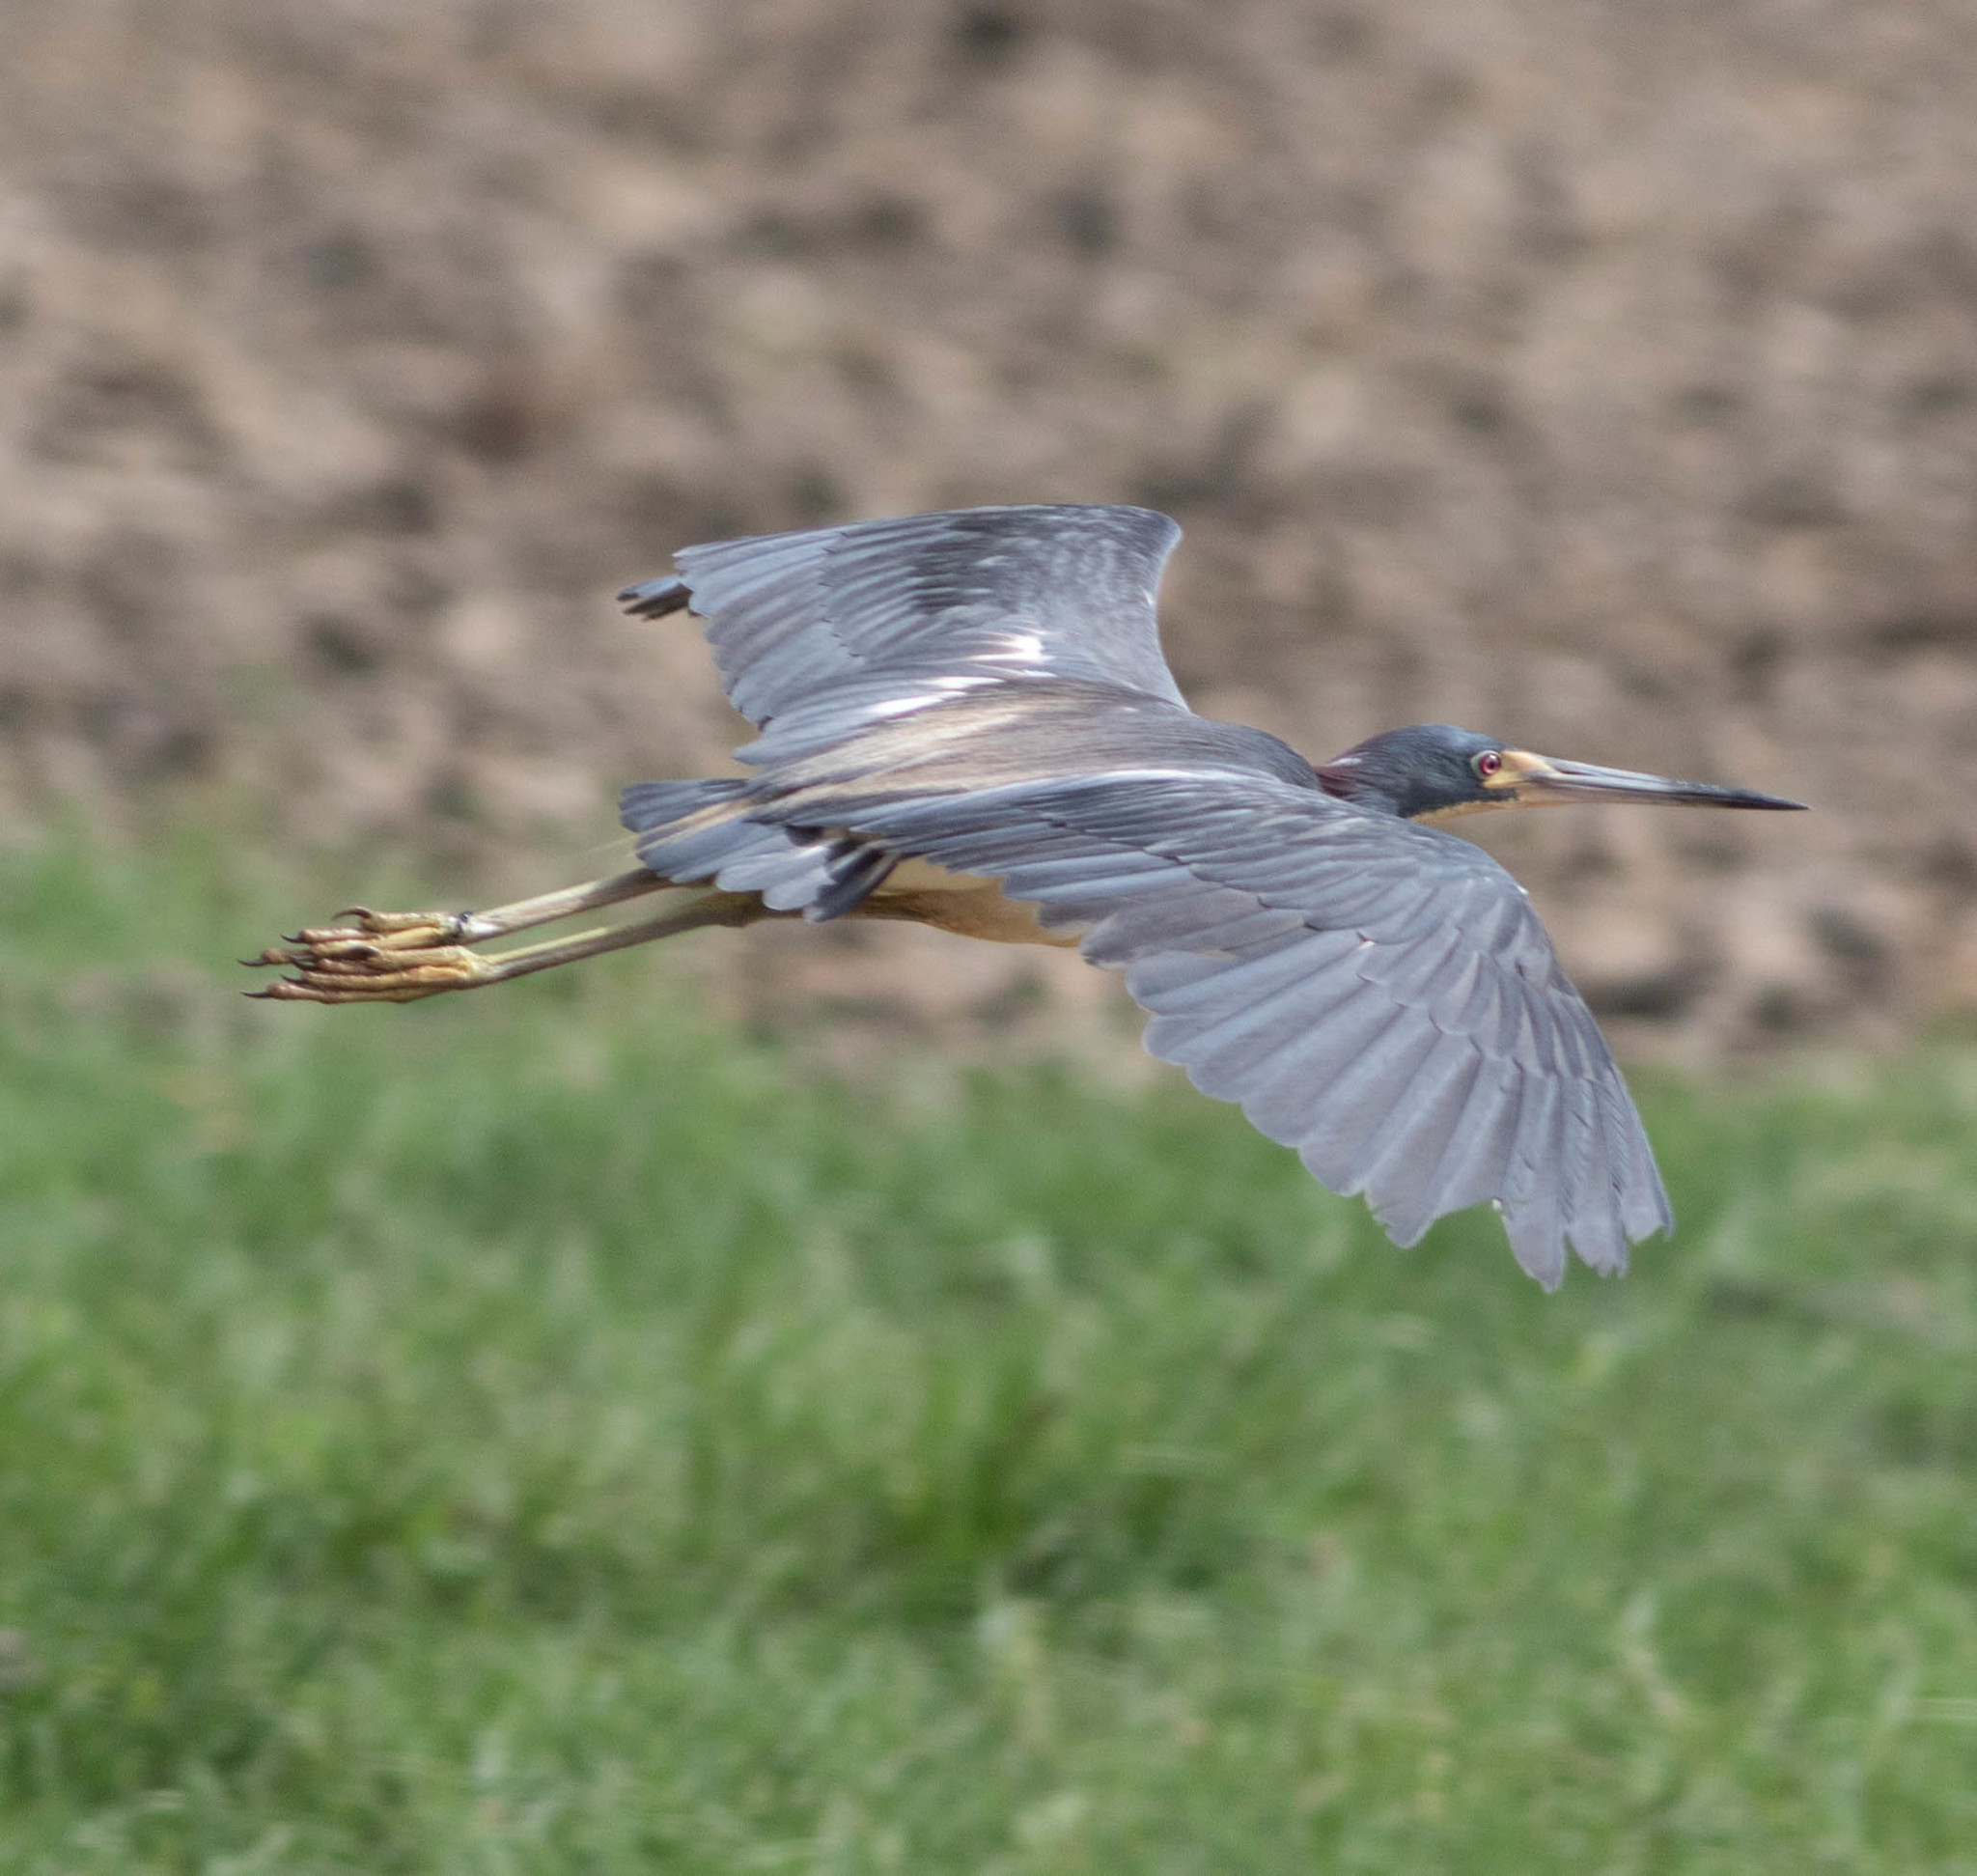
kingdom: Animalia
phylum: Chordata
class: Aves
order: Pelecaniformes
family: Ardeidae
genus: Egretta
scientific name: Egretta tricolor
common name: Tricolored heron
